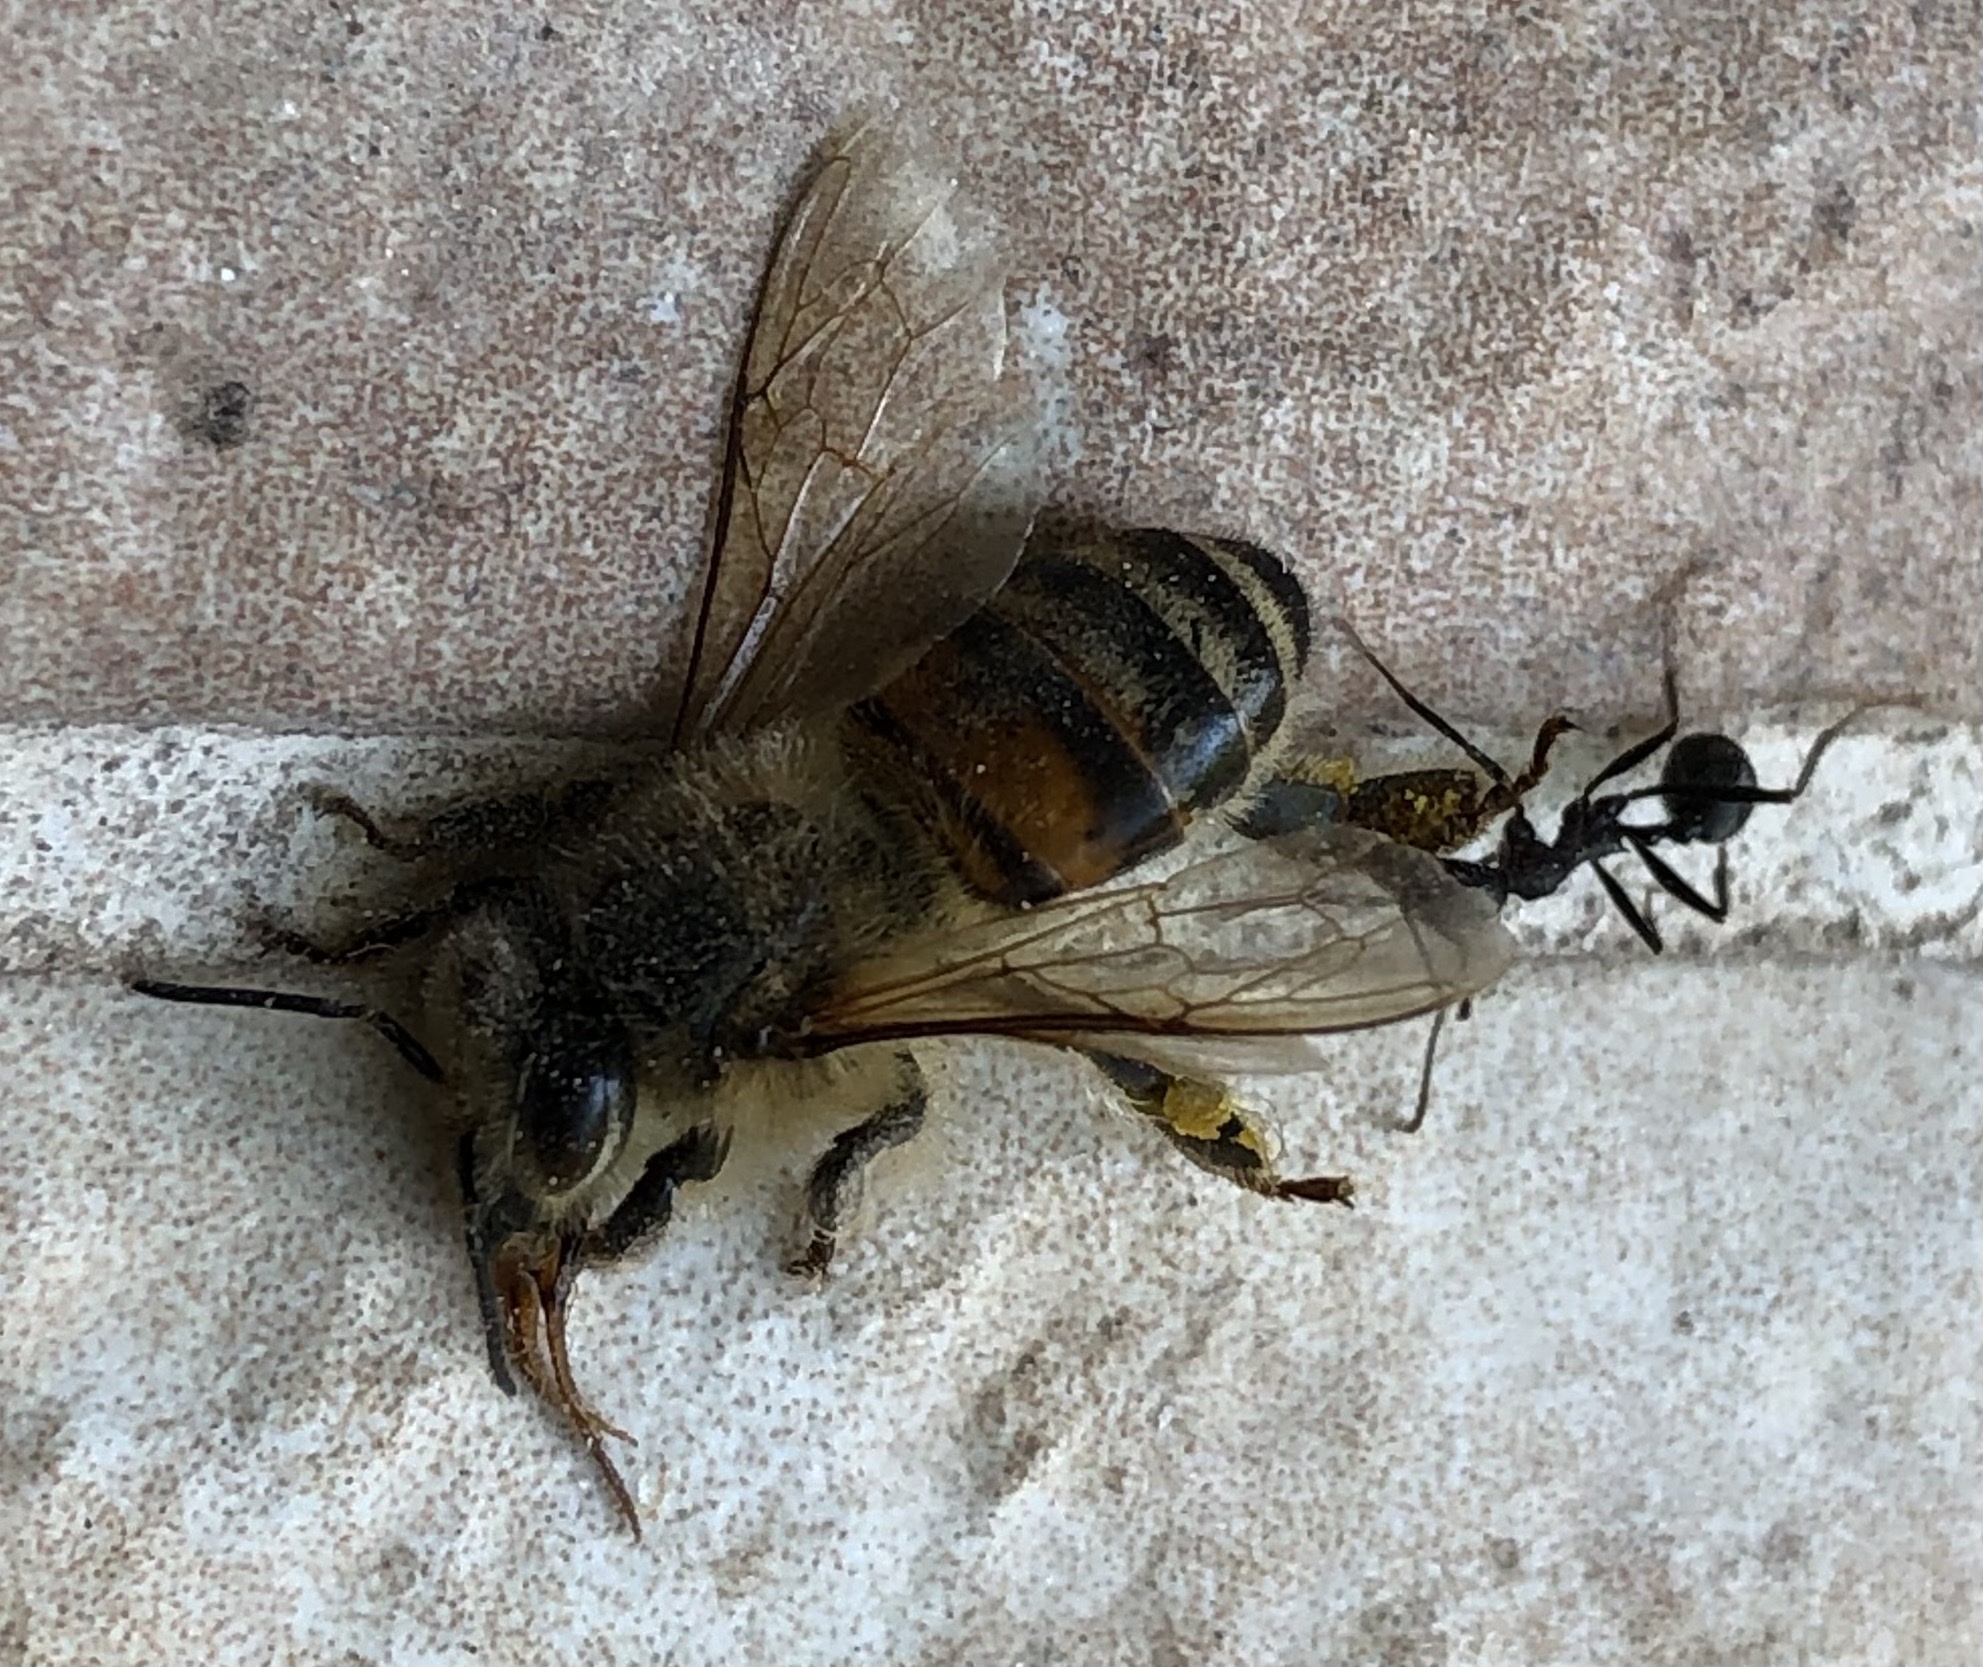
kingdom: Animalia
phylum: Arthropoda
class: Insecta
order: Hymenoptera
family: Apidae
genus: Apis
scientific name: Apis mellifera
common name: Honey bee
